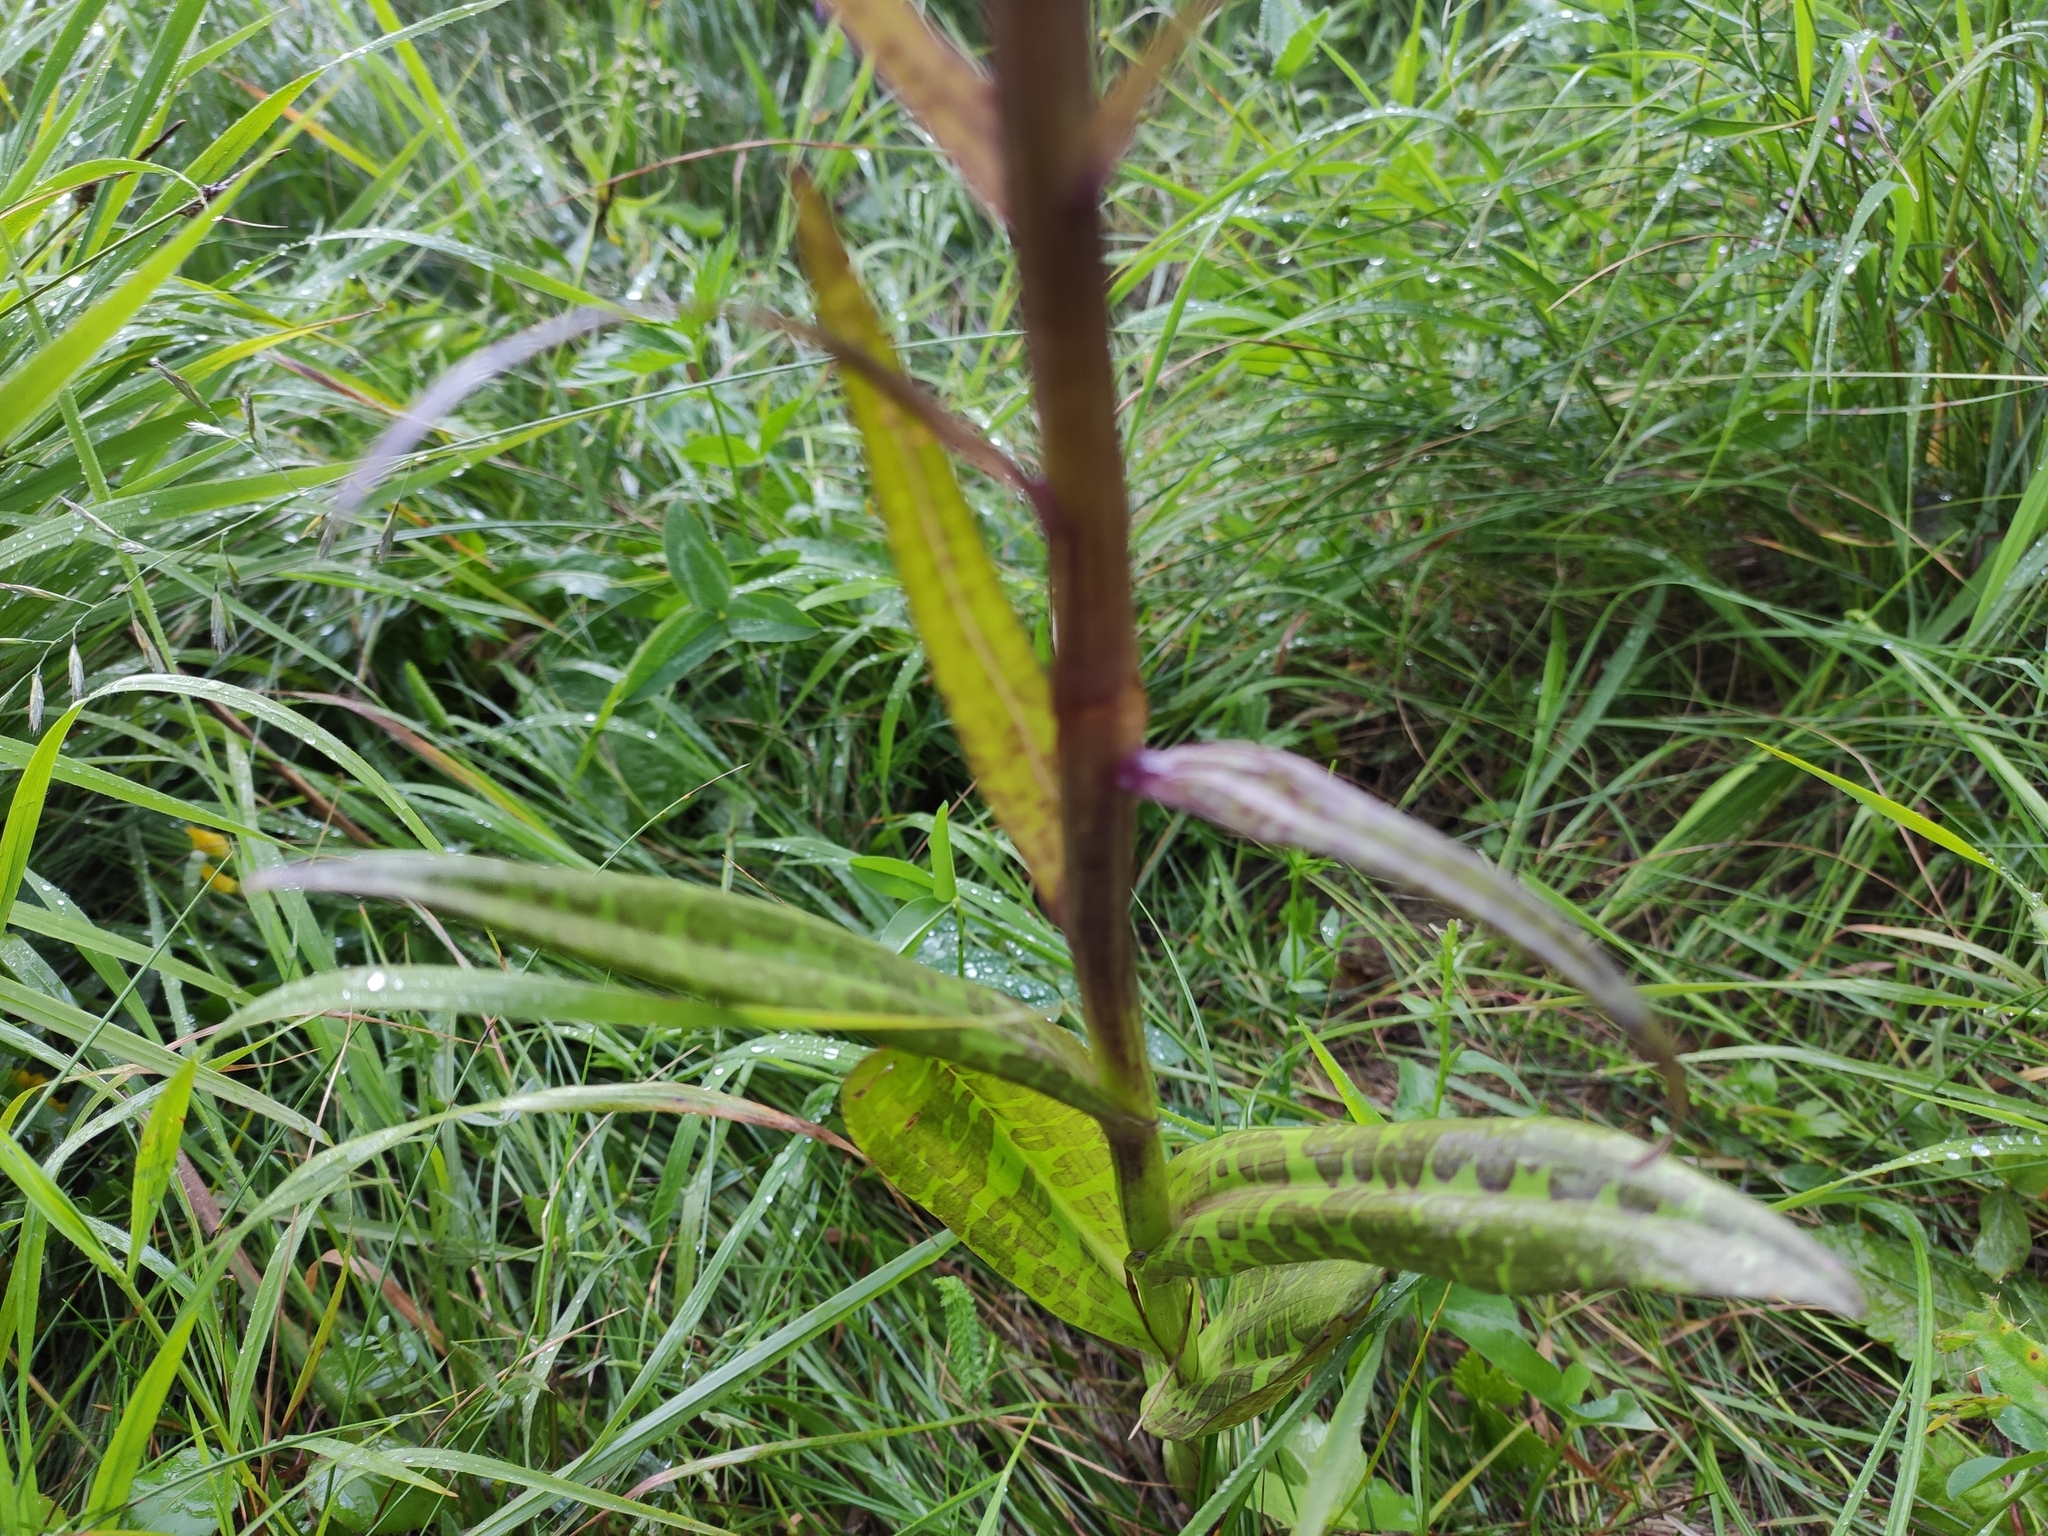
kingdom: Plantae
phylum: Tracheophyta
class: Liliopsida
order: Asparagales
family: Orchidaceae
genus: Dactylorhiza
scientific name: Dactylorhiza urvilleana
